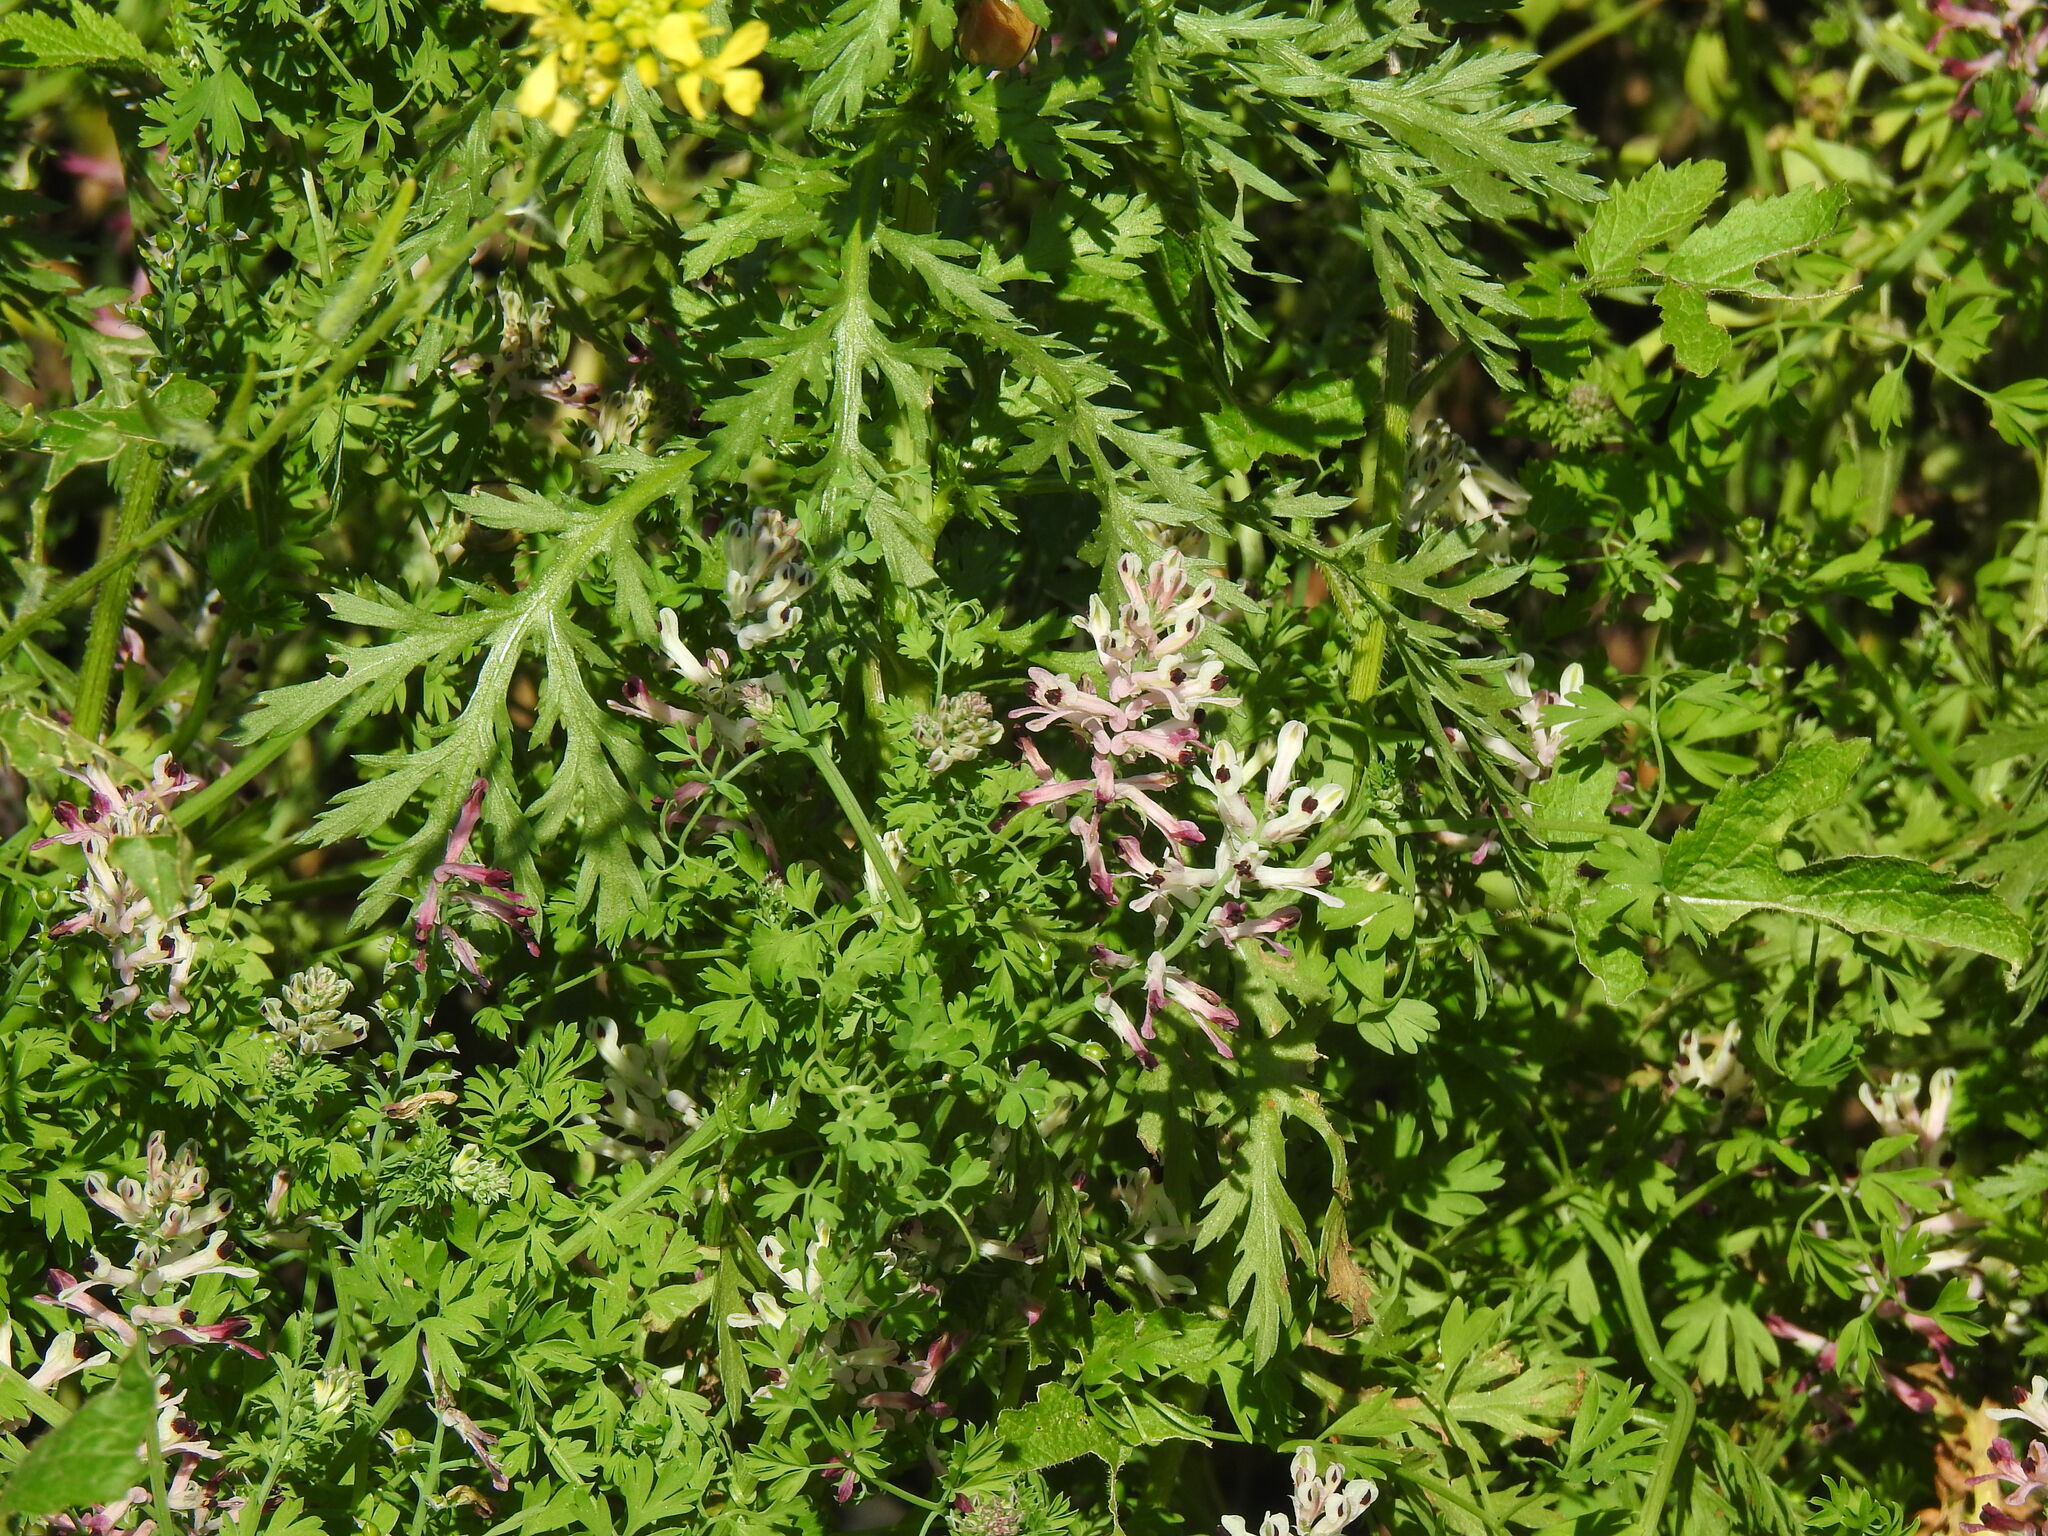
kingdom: Plantae
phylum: Tracheophyta
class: Magnoliopsida
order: Ranunculales
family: Papaveraceae
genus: Fumaria
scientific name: Fumaria agraria
